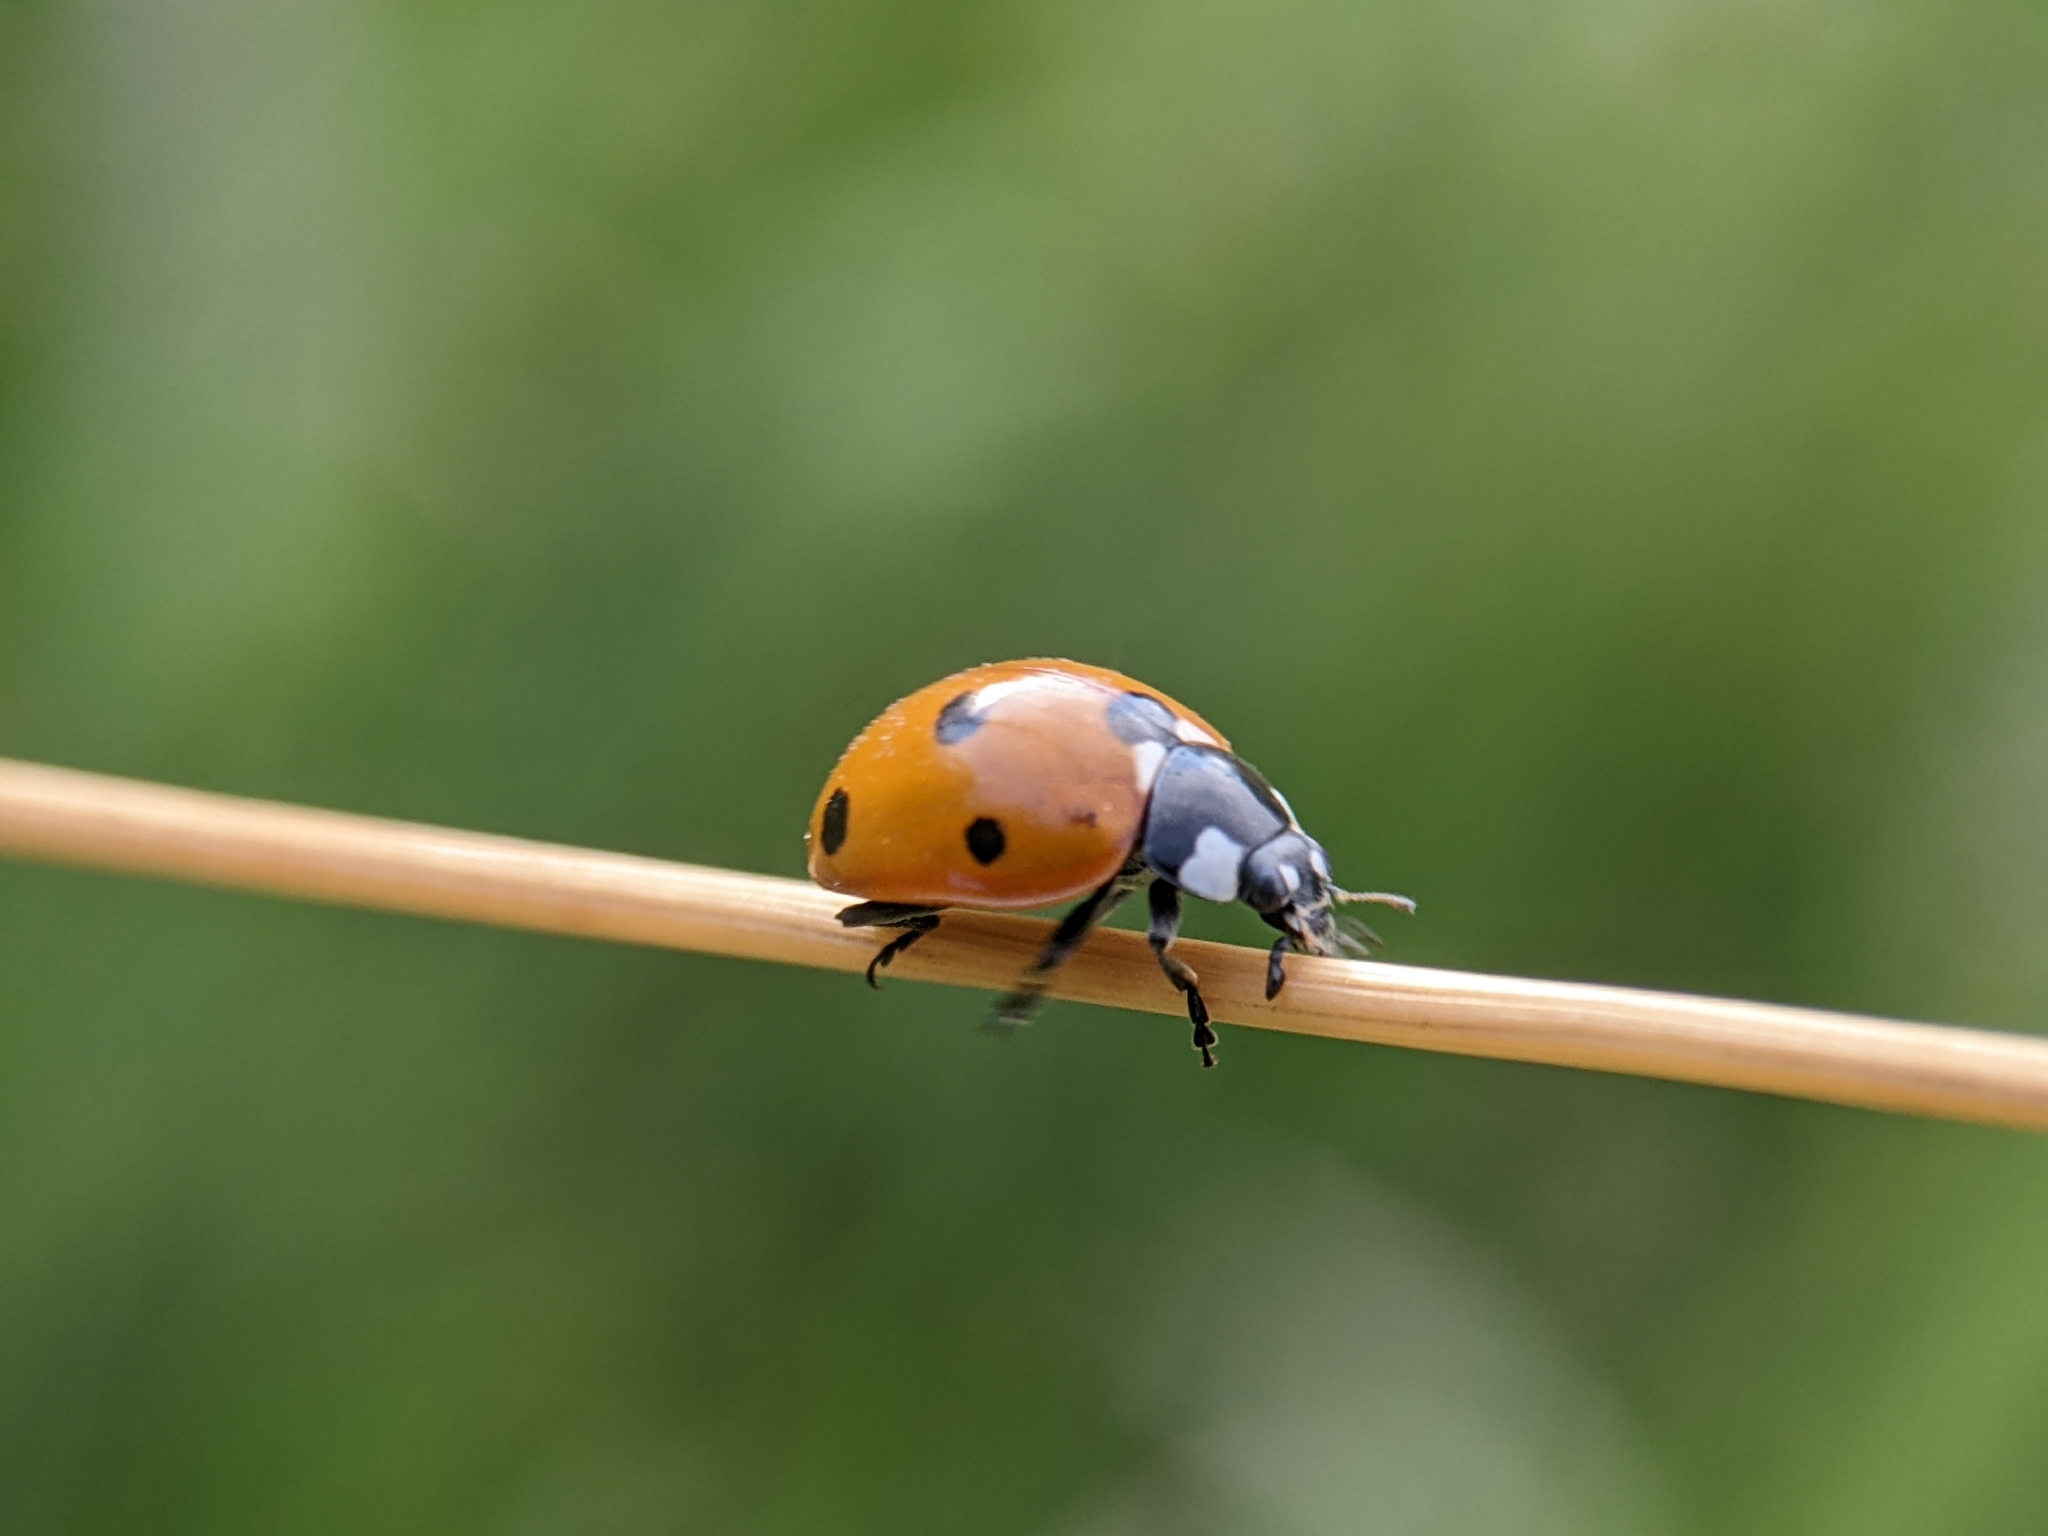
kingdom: Animalia
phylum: Arthropoda
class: Insecta
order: Coleoptera
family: Coccinellidae
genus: Coccinella
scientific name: Coccinella septempunctata
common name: Sevenspotted lady beetle
